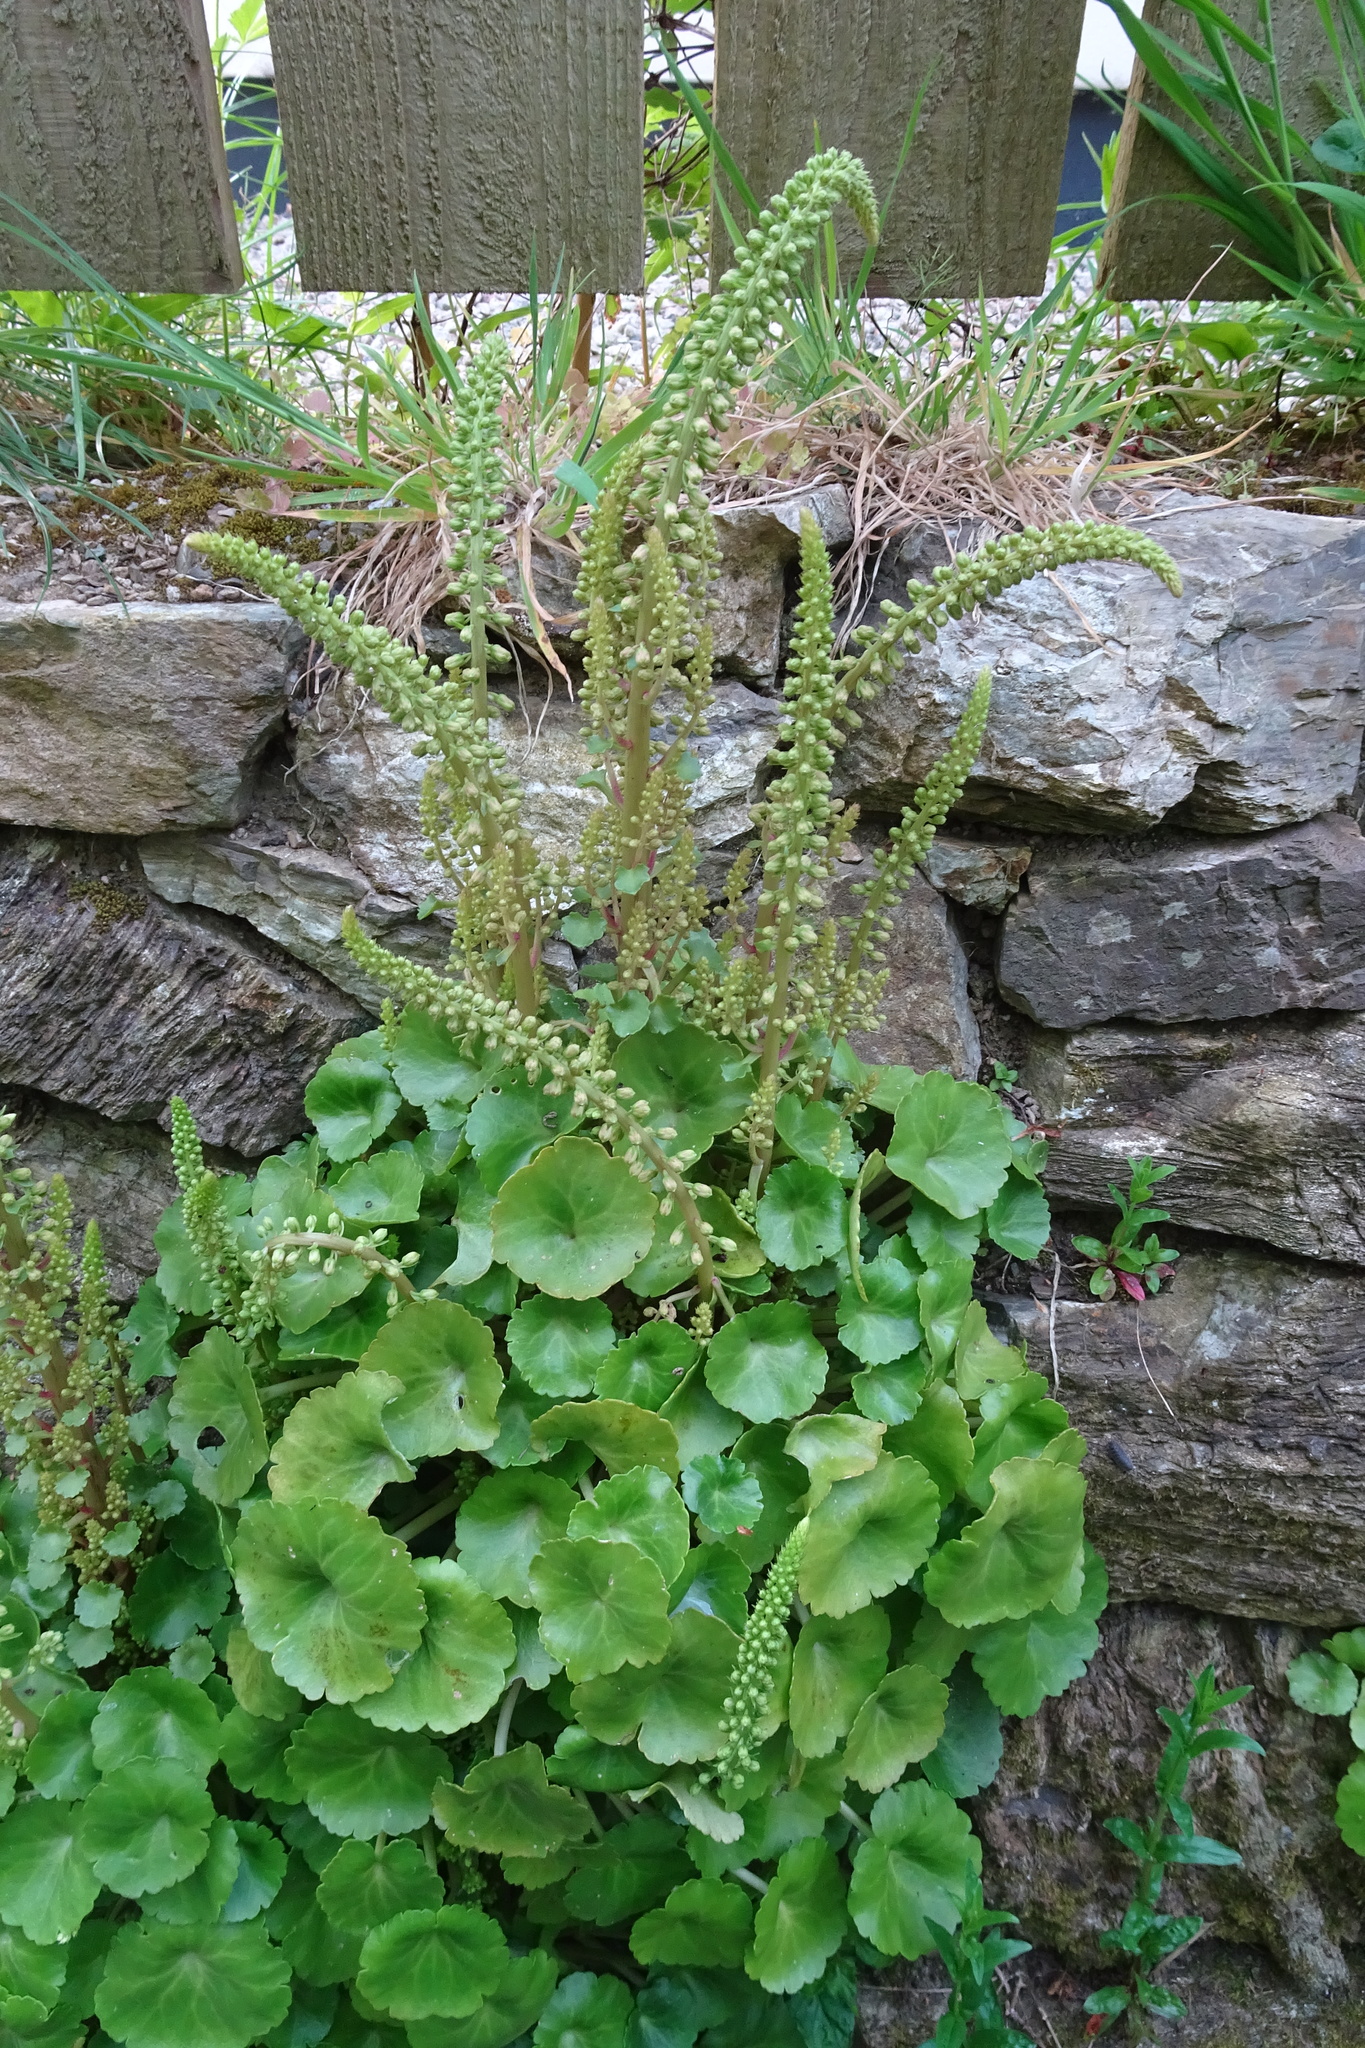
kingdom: Plantae
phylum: Tracheophyta
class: Magnoliopsida
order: Saxifragales
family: Crassulaceae
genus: Umbilicus
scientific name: Umbilicus rupestris
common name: Navelwort
